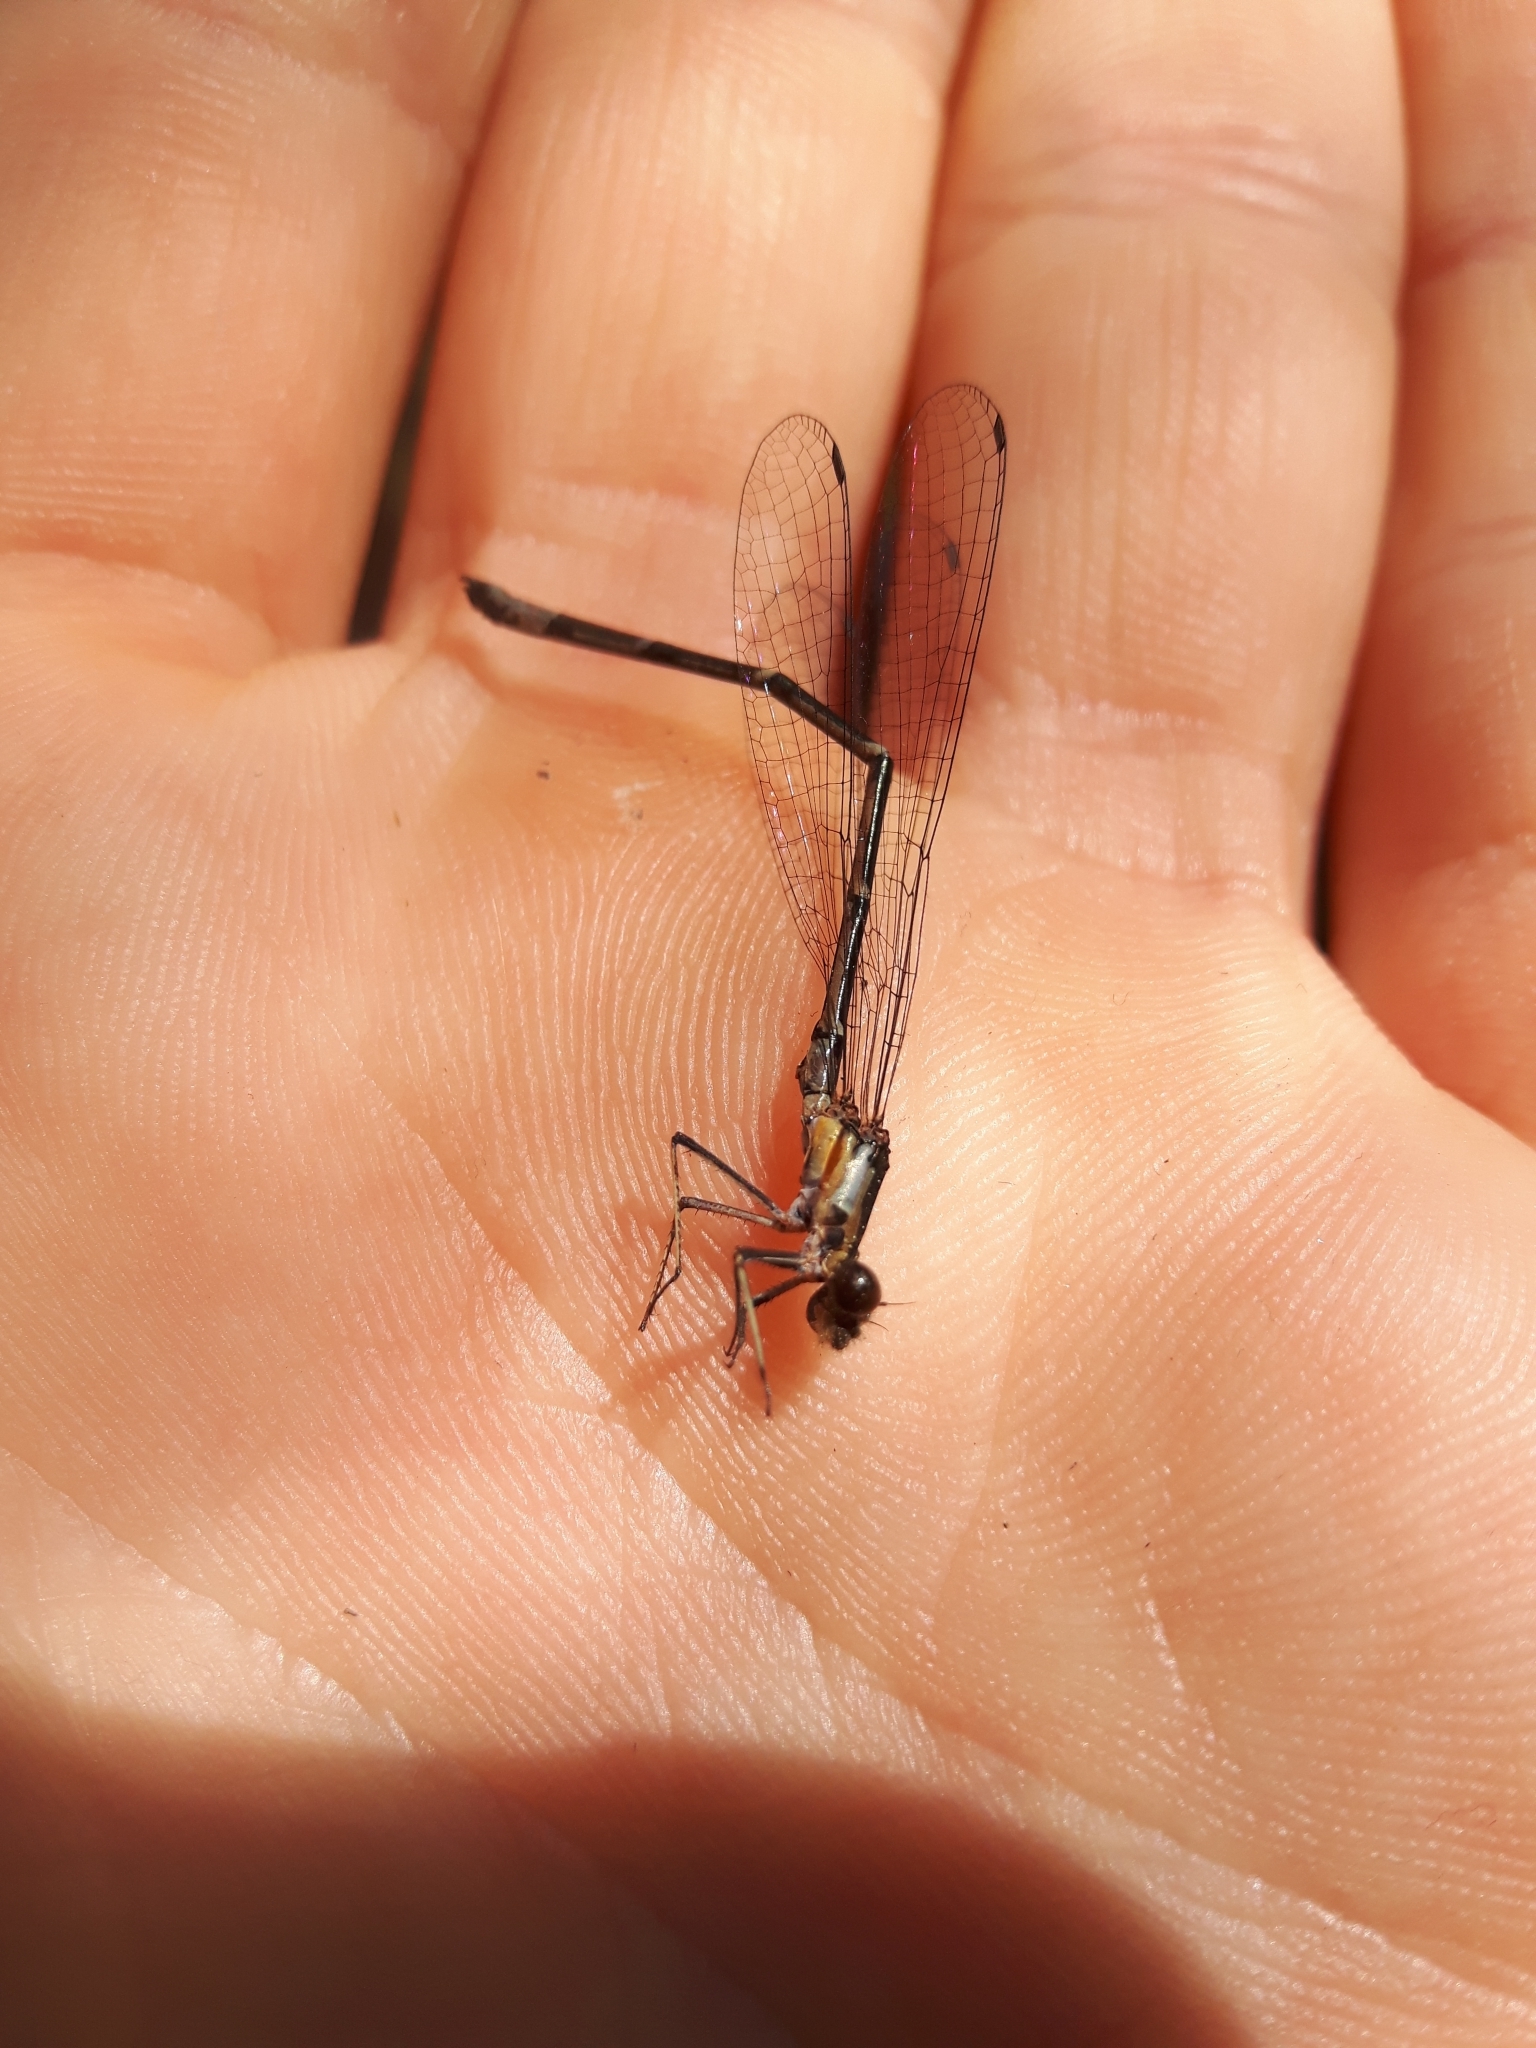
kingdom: Animalia
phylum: Arthropoda
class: Insecta
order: Odonata
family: Coenagrionidae
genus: Chromagrion
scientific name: Chromagrion conditum
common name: Aurora damsel
